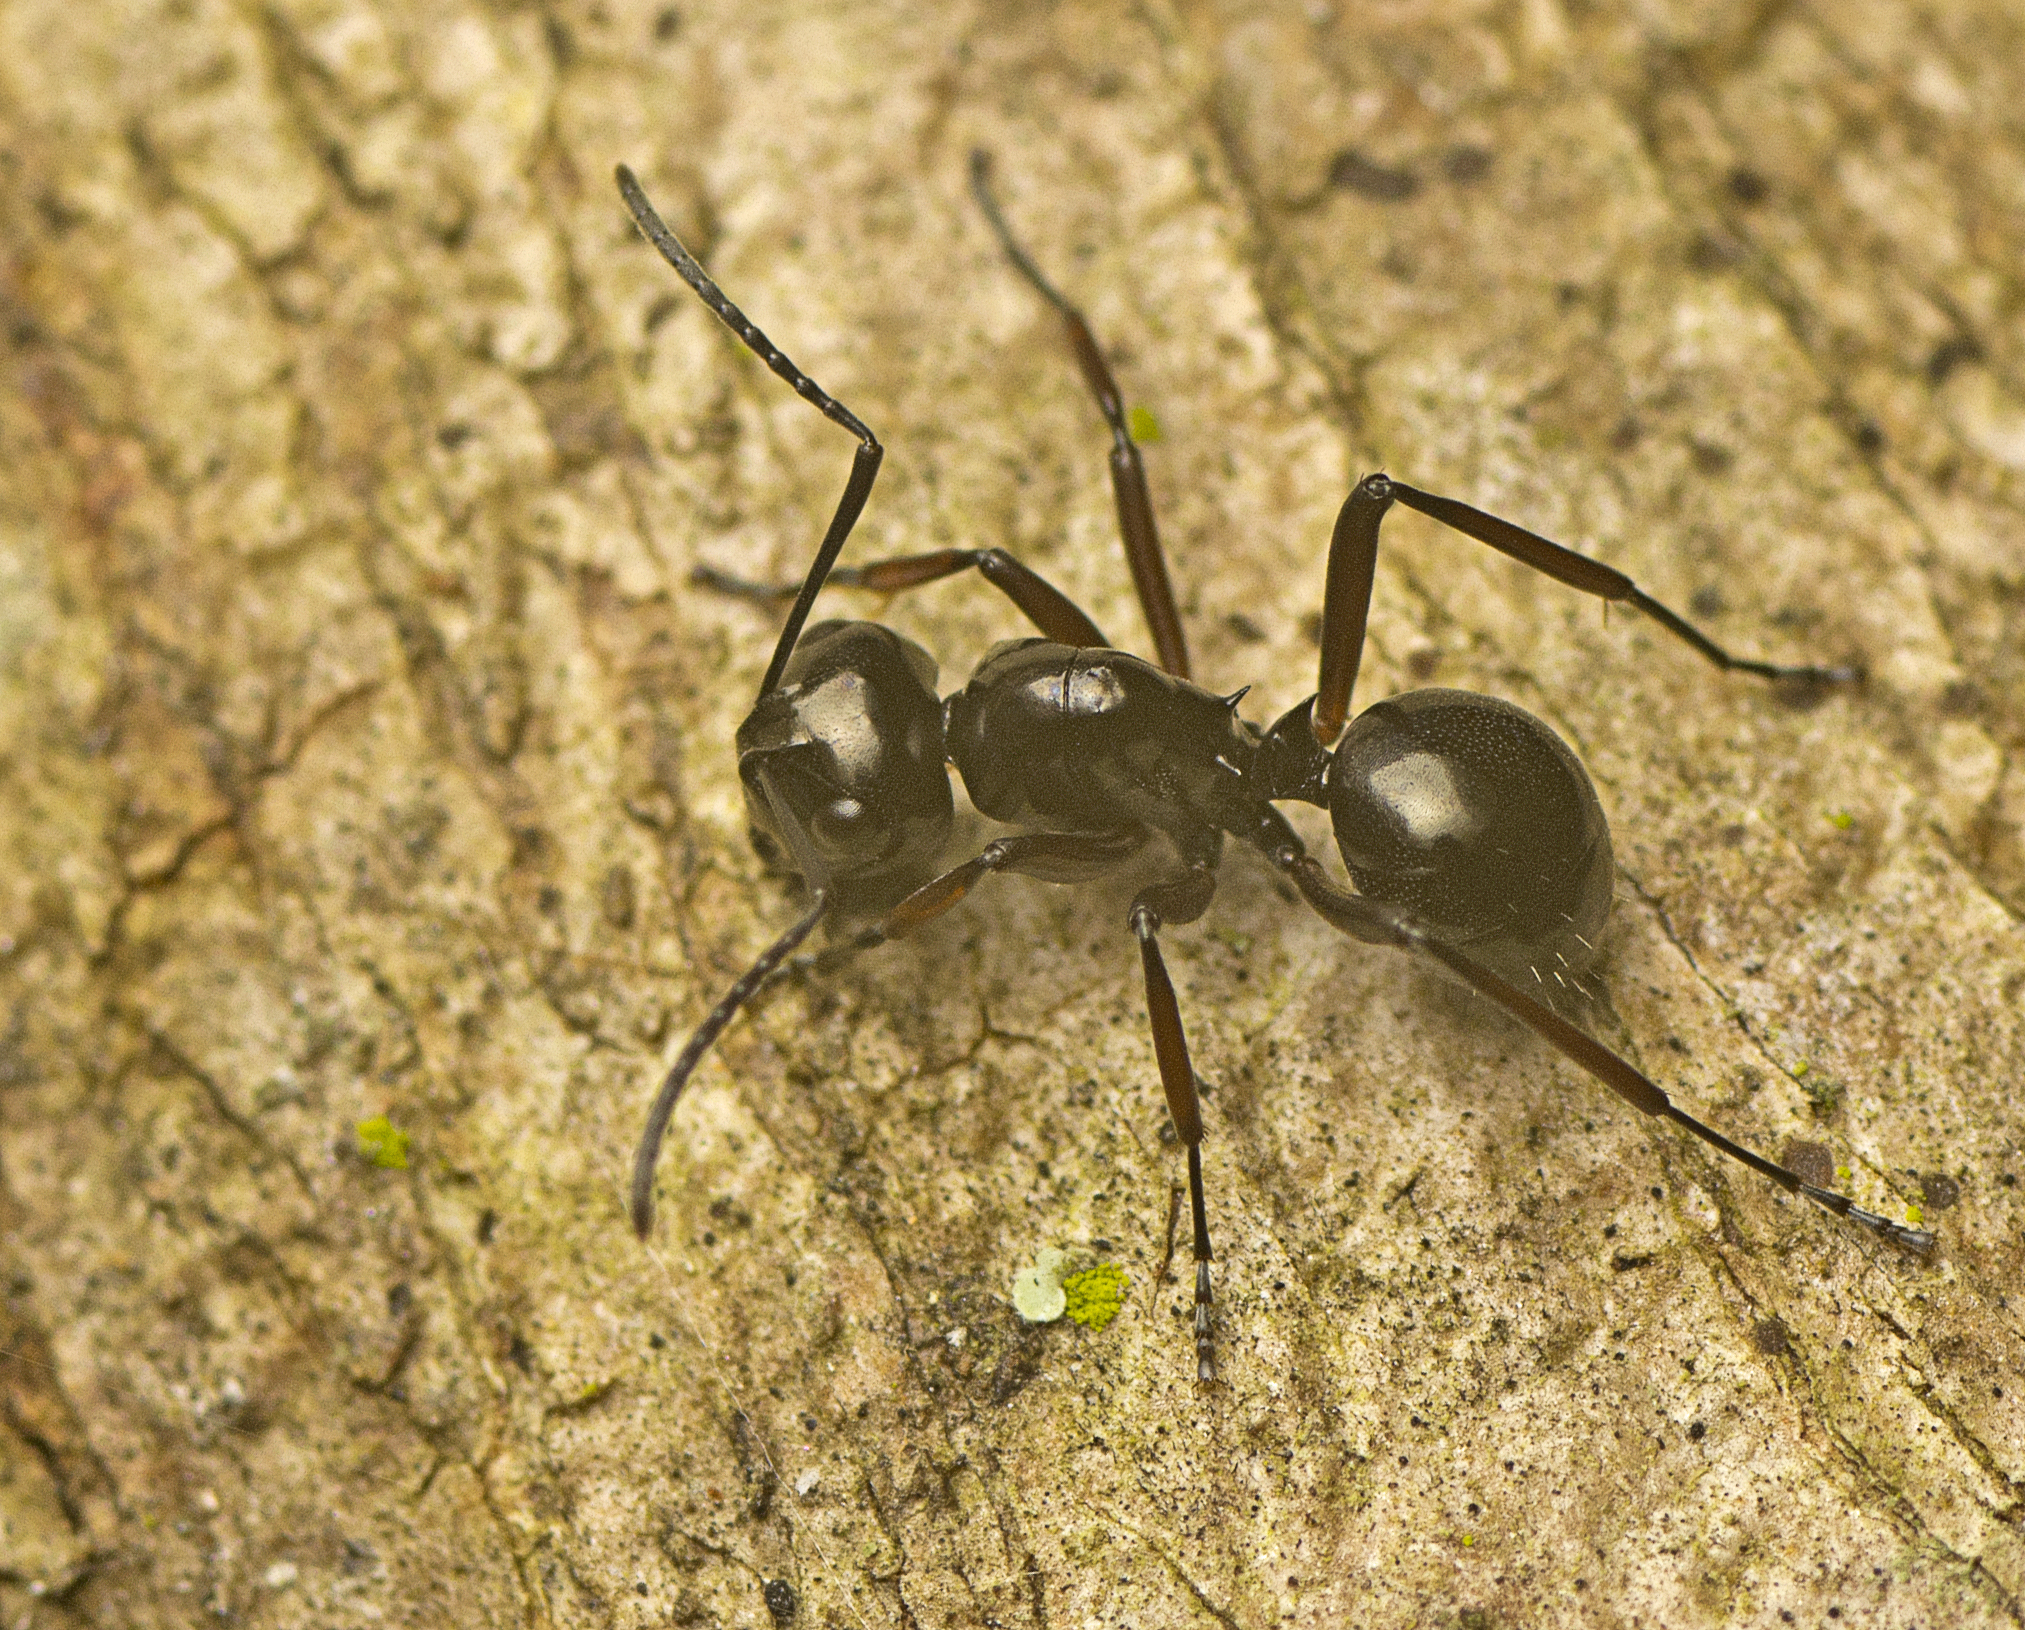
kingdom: Animalia
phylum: Arthropoda
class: Insecta
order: Hymenoptera
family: Formicidae
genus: Polyrhachis
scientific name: Polyrhachis australis
